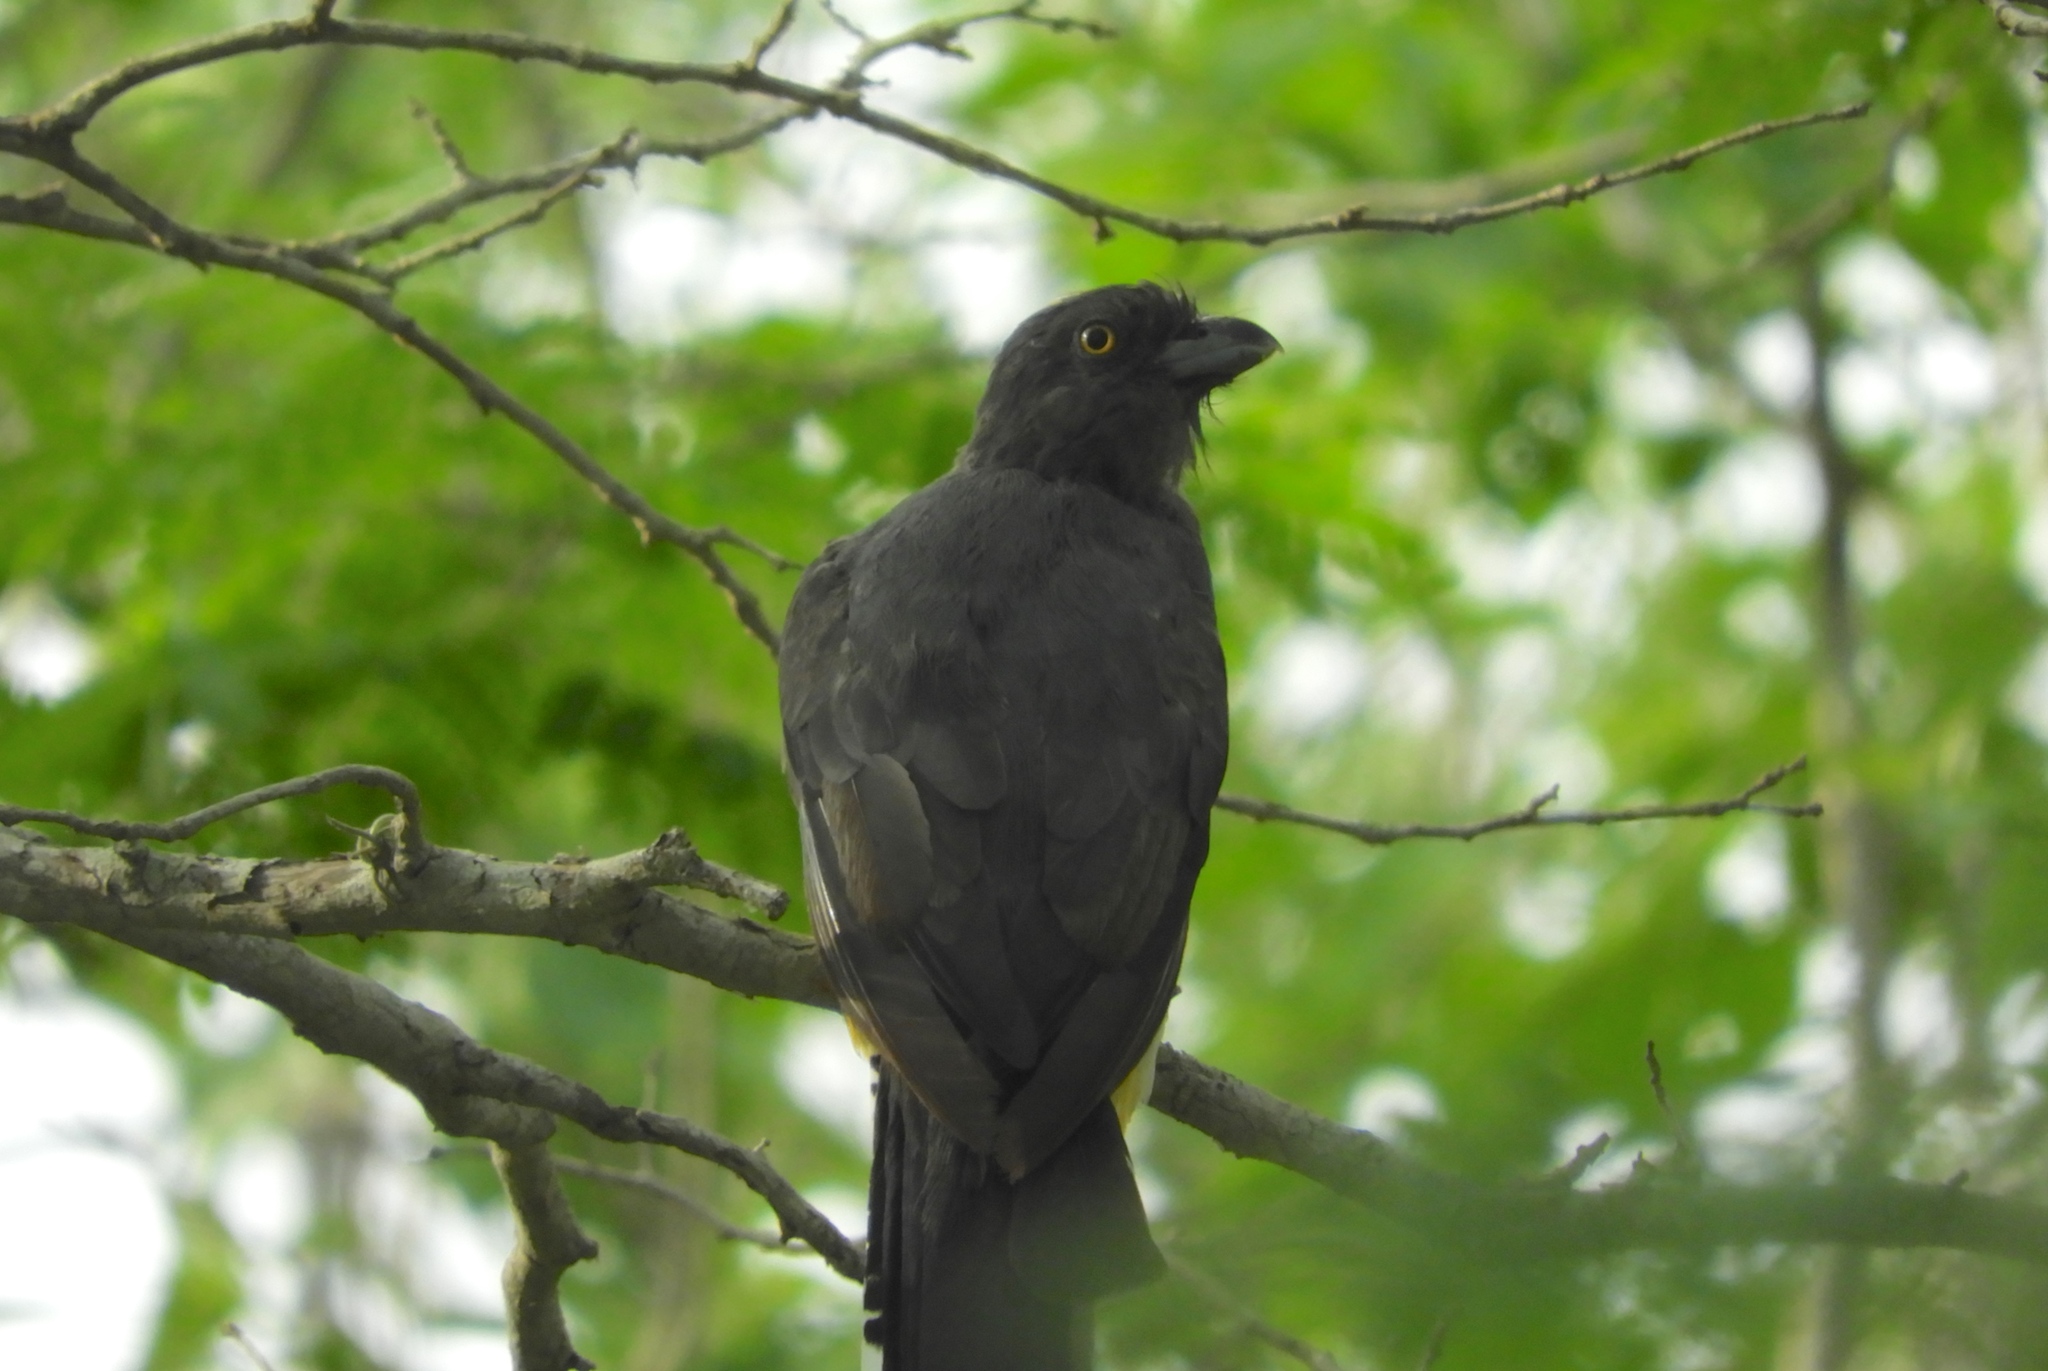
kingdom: Animalia
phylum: Chordata
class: Aves
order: Trogoniformes
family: Trogonidae
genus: Trogon
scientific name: Trogon citreolus
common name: Citreoline trogon
